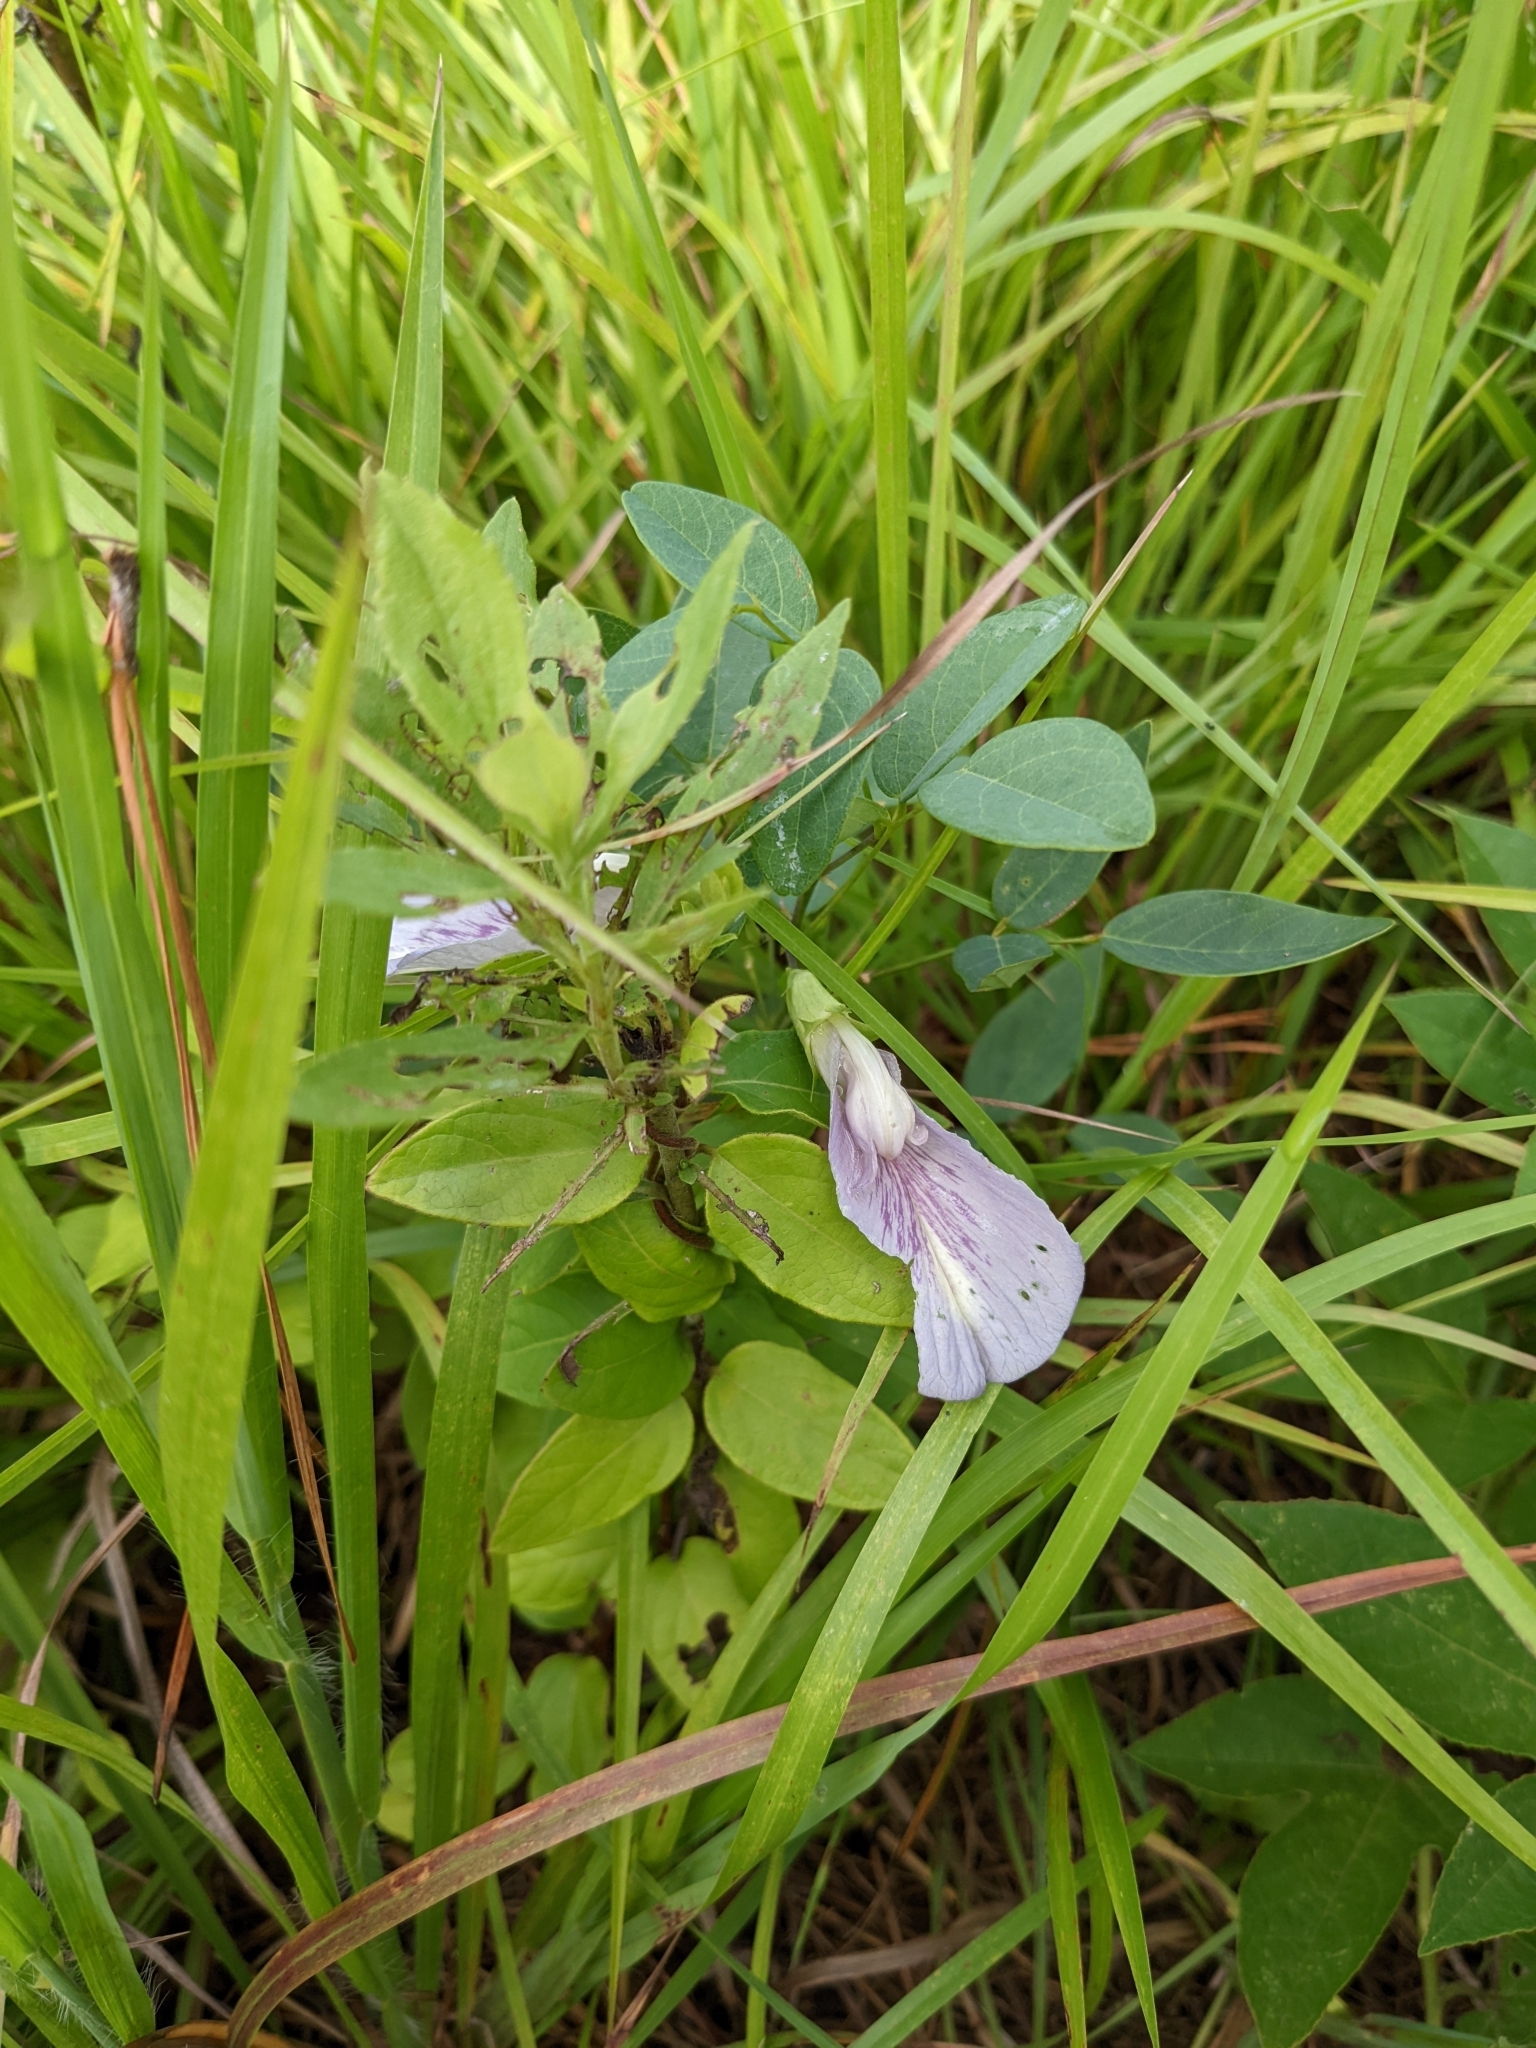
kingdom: Plantae
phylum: Tracheophyta
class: Magnoliopsida
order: Fabales
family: Fabaceae
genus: Clitoria
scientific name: Clitoria mariana
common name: Butterfly-pea
